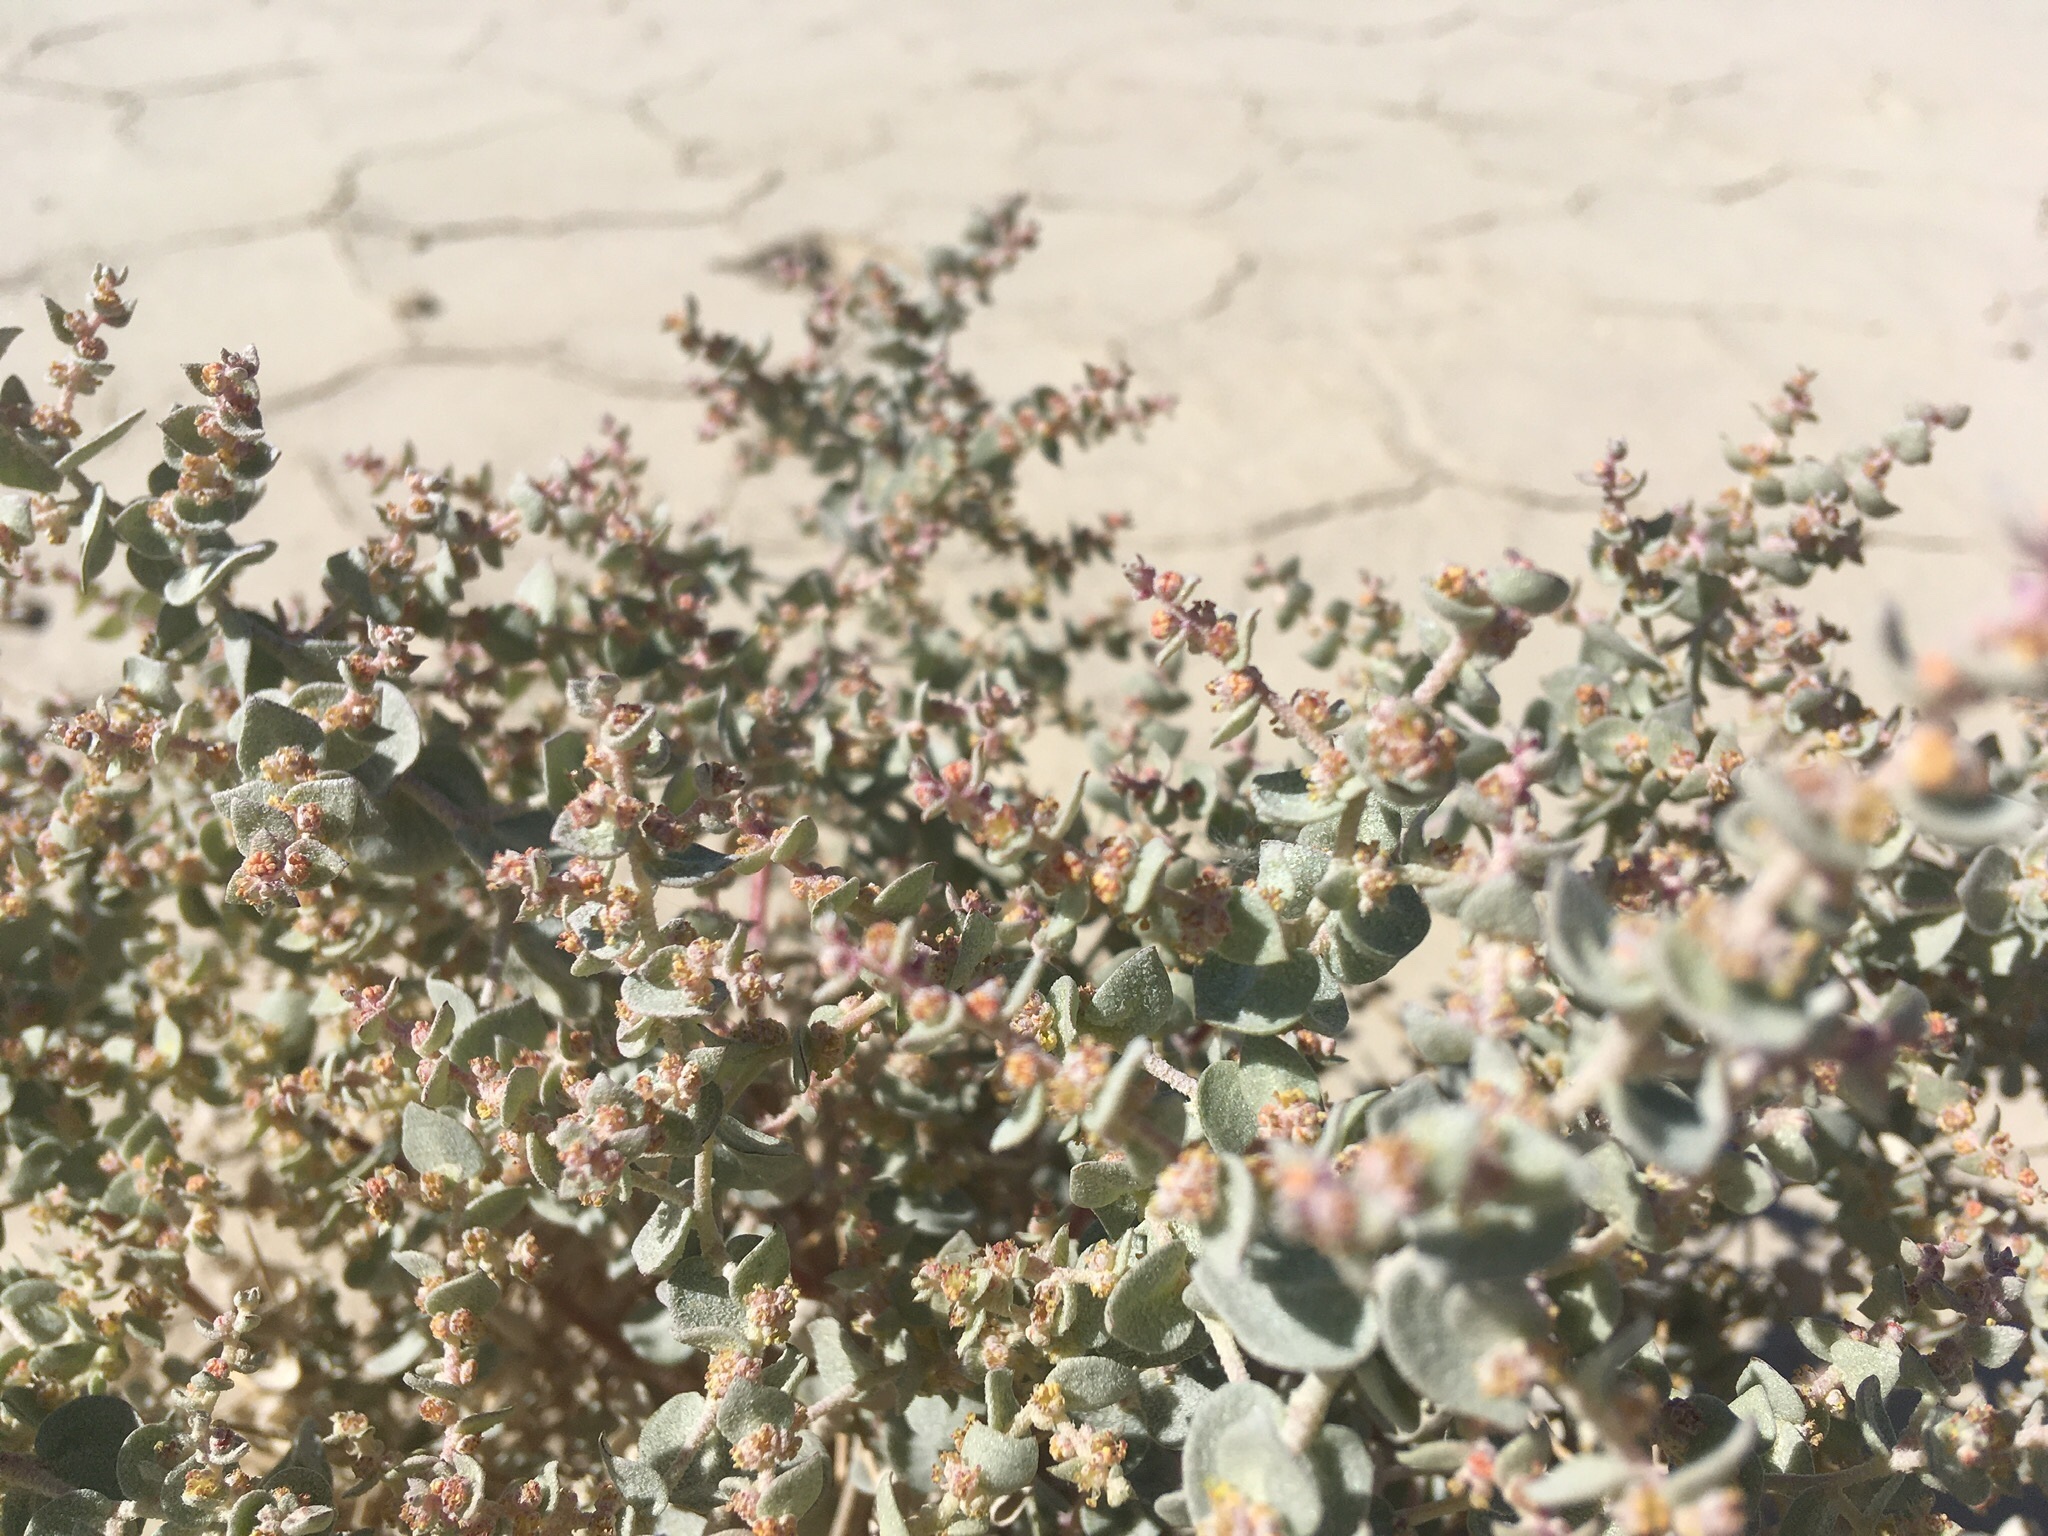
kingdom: Plantae
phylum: Tracheophyta
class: Magnoliopsida
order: Caryophyllales
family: Amaranthaceae
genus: Atriplex
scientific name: Atriplex parryi
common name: Parry's saltbush
